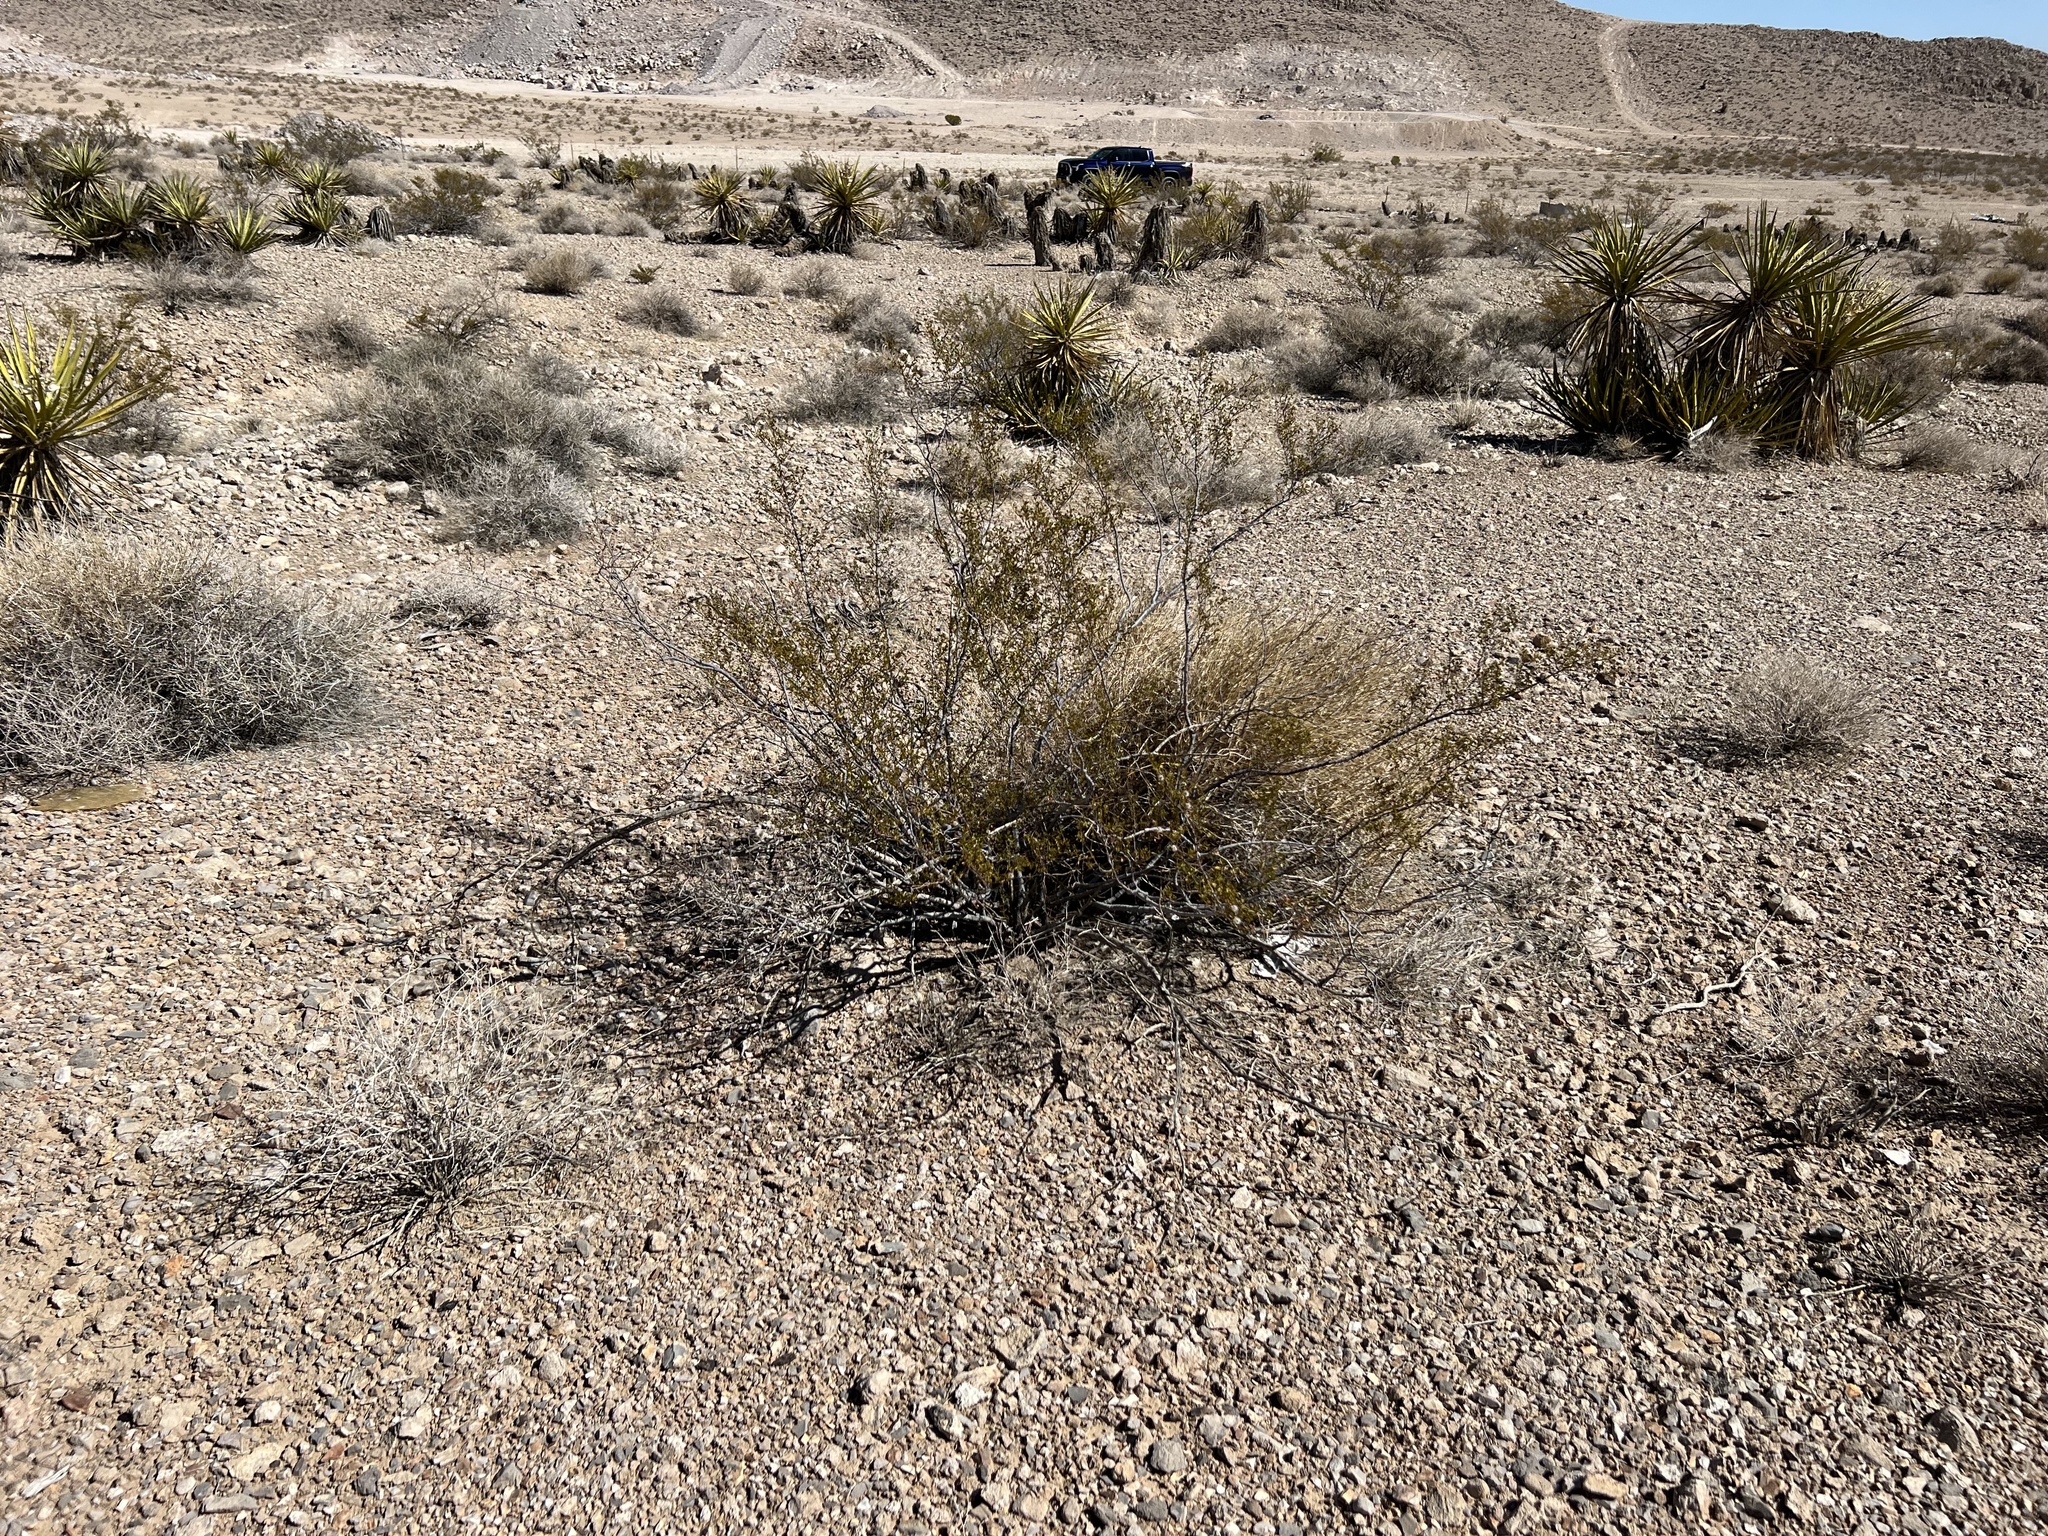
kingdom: Plantae
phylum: Tracheophyta
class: Magnoliopsida
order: Zygophyllales
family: Zygophyllaceae
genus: Larrea
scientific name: Larrea tridentata
